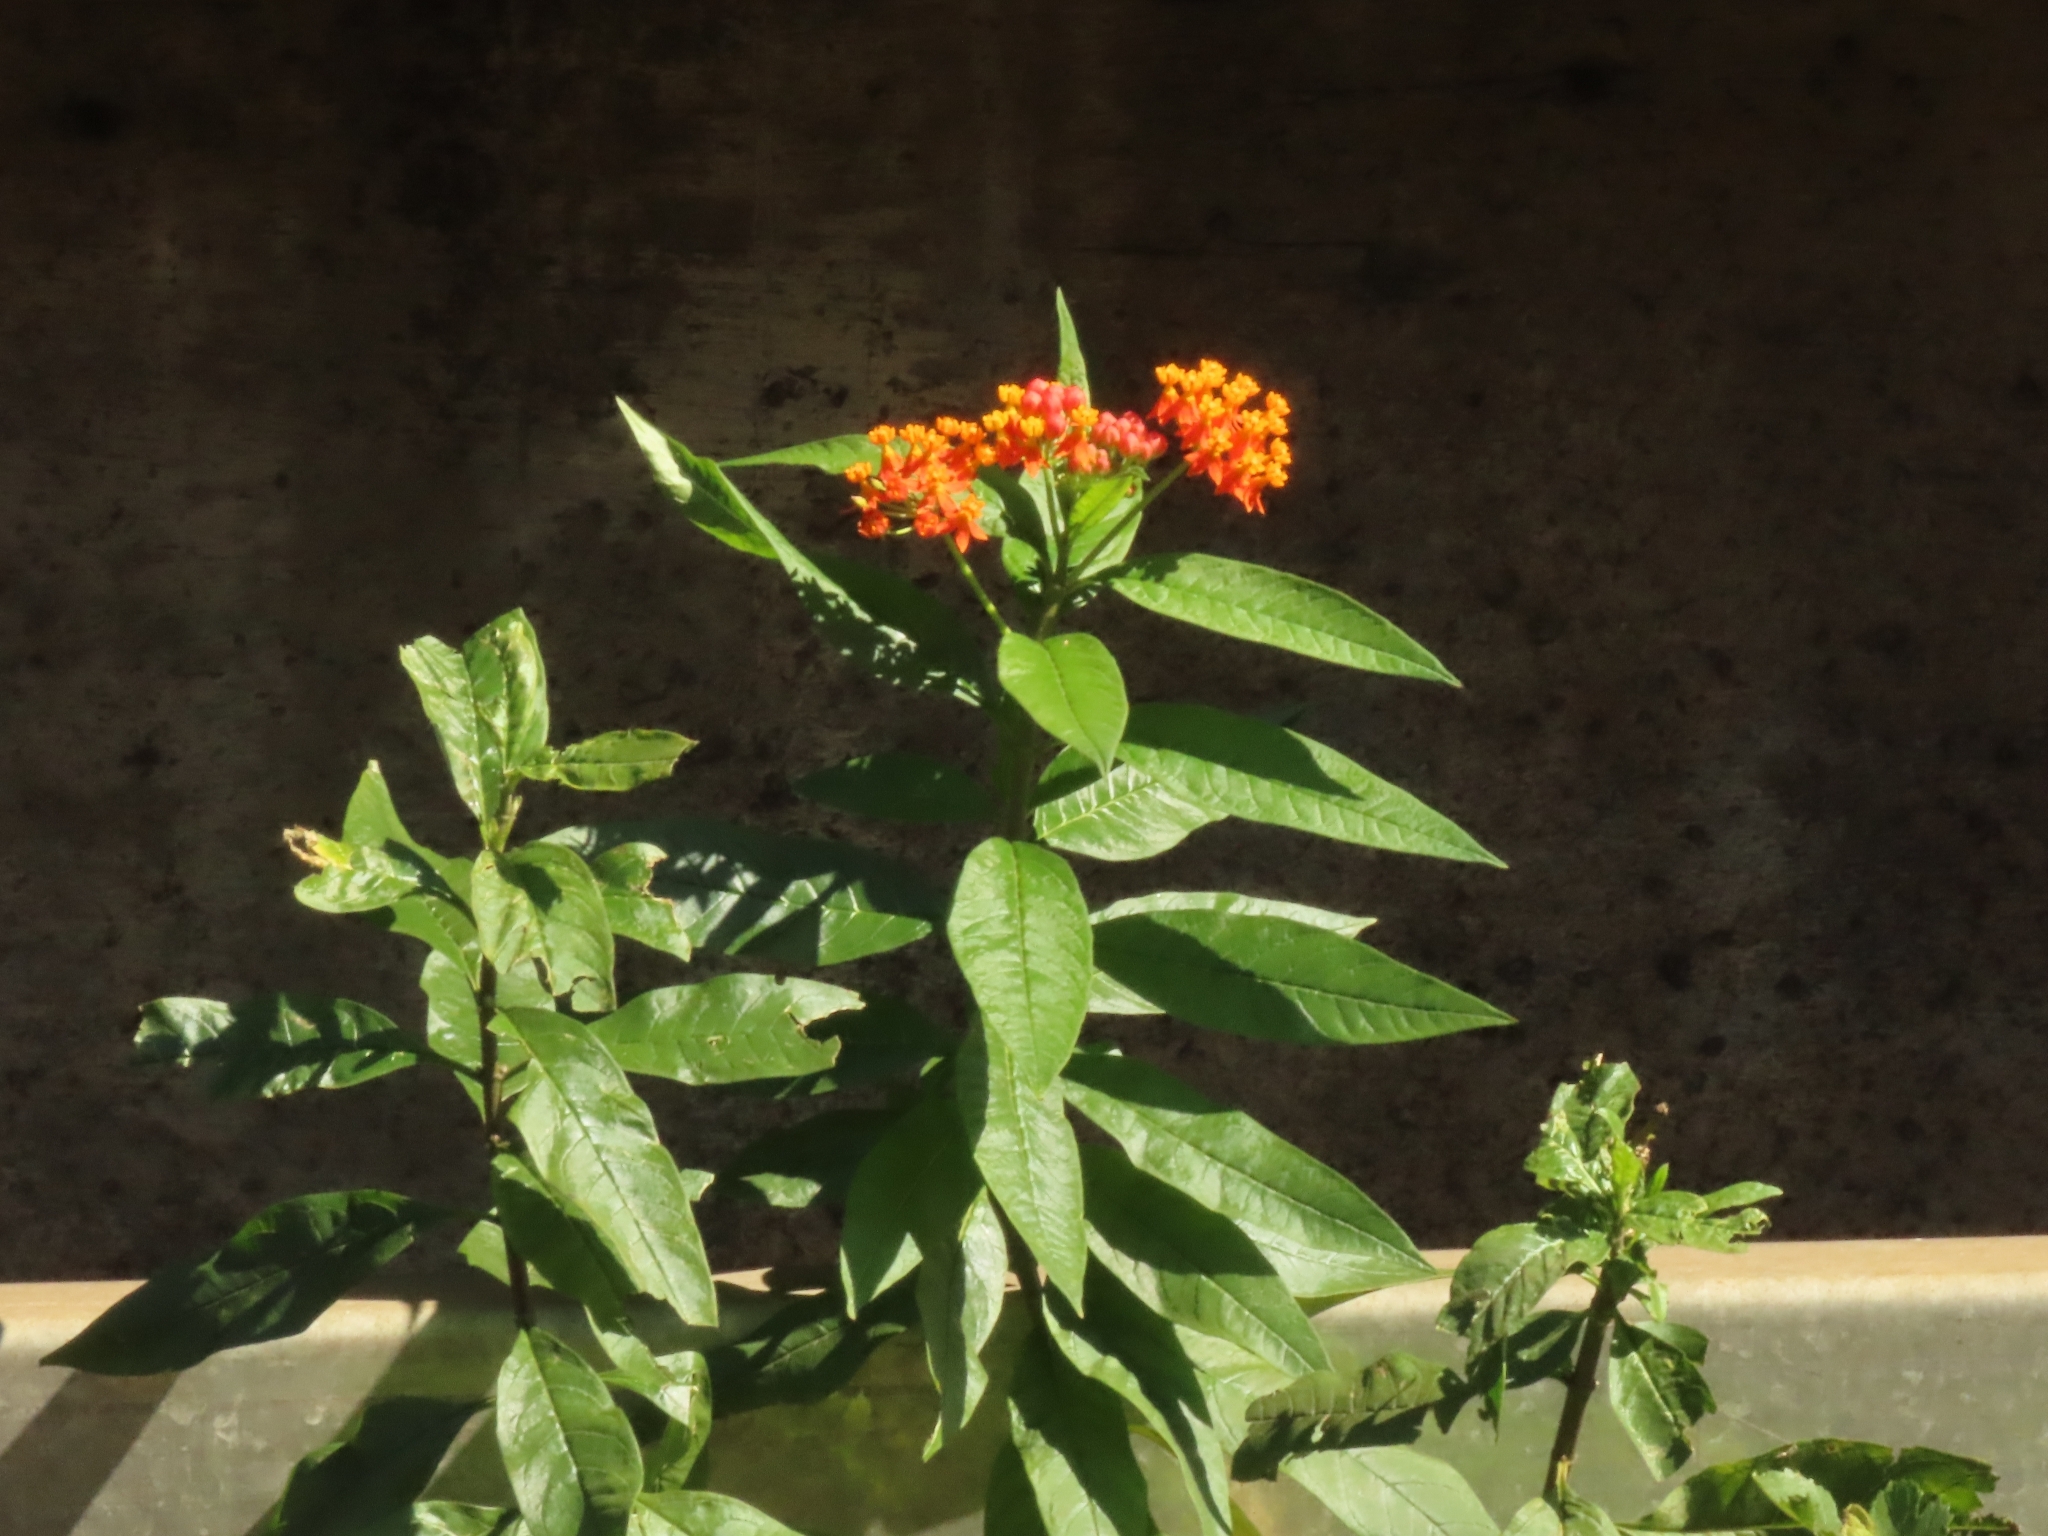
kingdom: Plantae
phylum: Tracheophyta
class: Magnoliopsida
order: Gentianales
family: Apocynaceae
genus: Asclepias
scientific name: Asclepias curassavica
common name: Bloodflower
